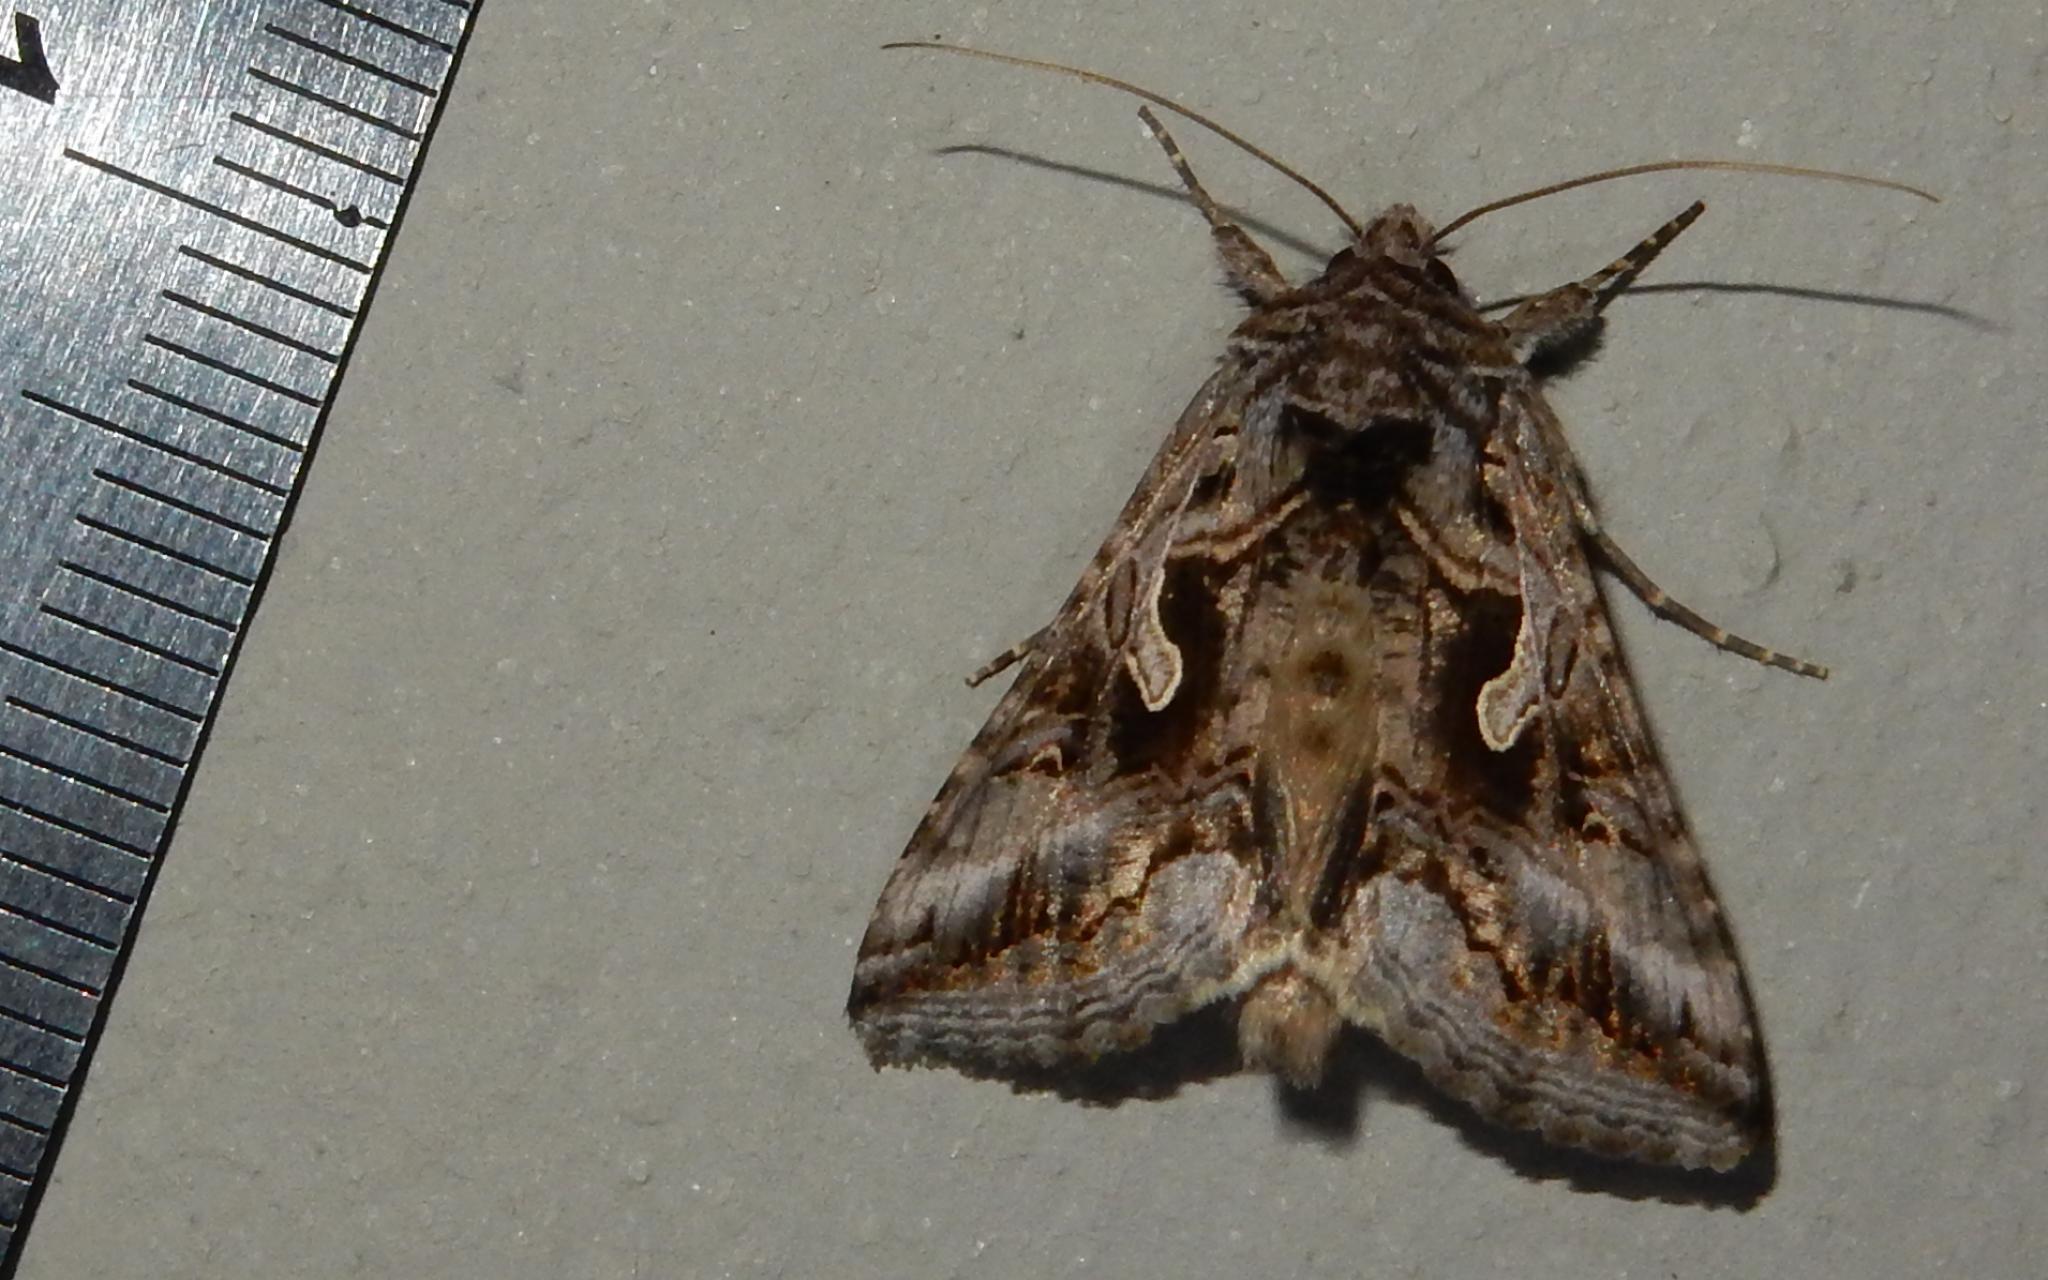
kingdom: Animalia
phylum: Arthropoda
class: Insecta
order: Lepidoptera
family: Noctuidae
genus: Cornutiplusia
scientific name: Cornutiplusia circumflexa
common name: Yorkshire y
